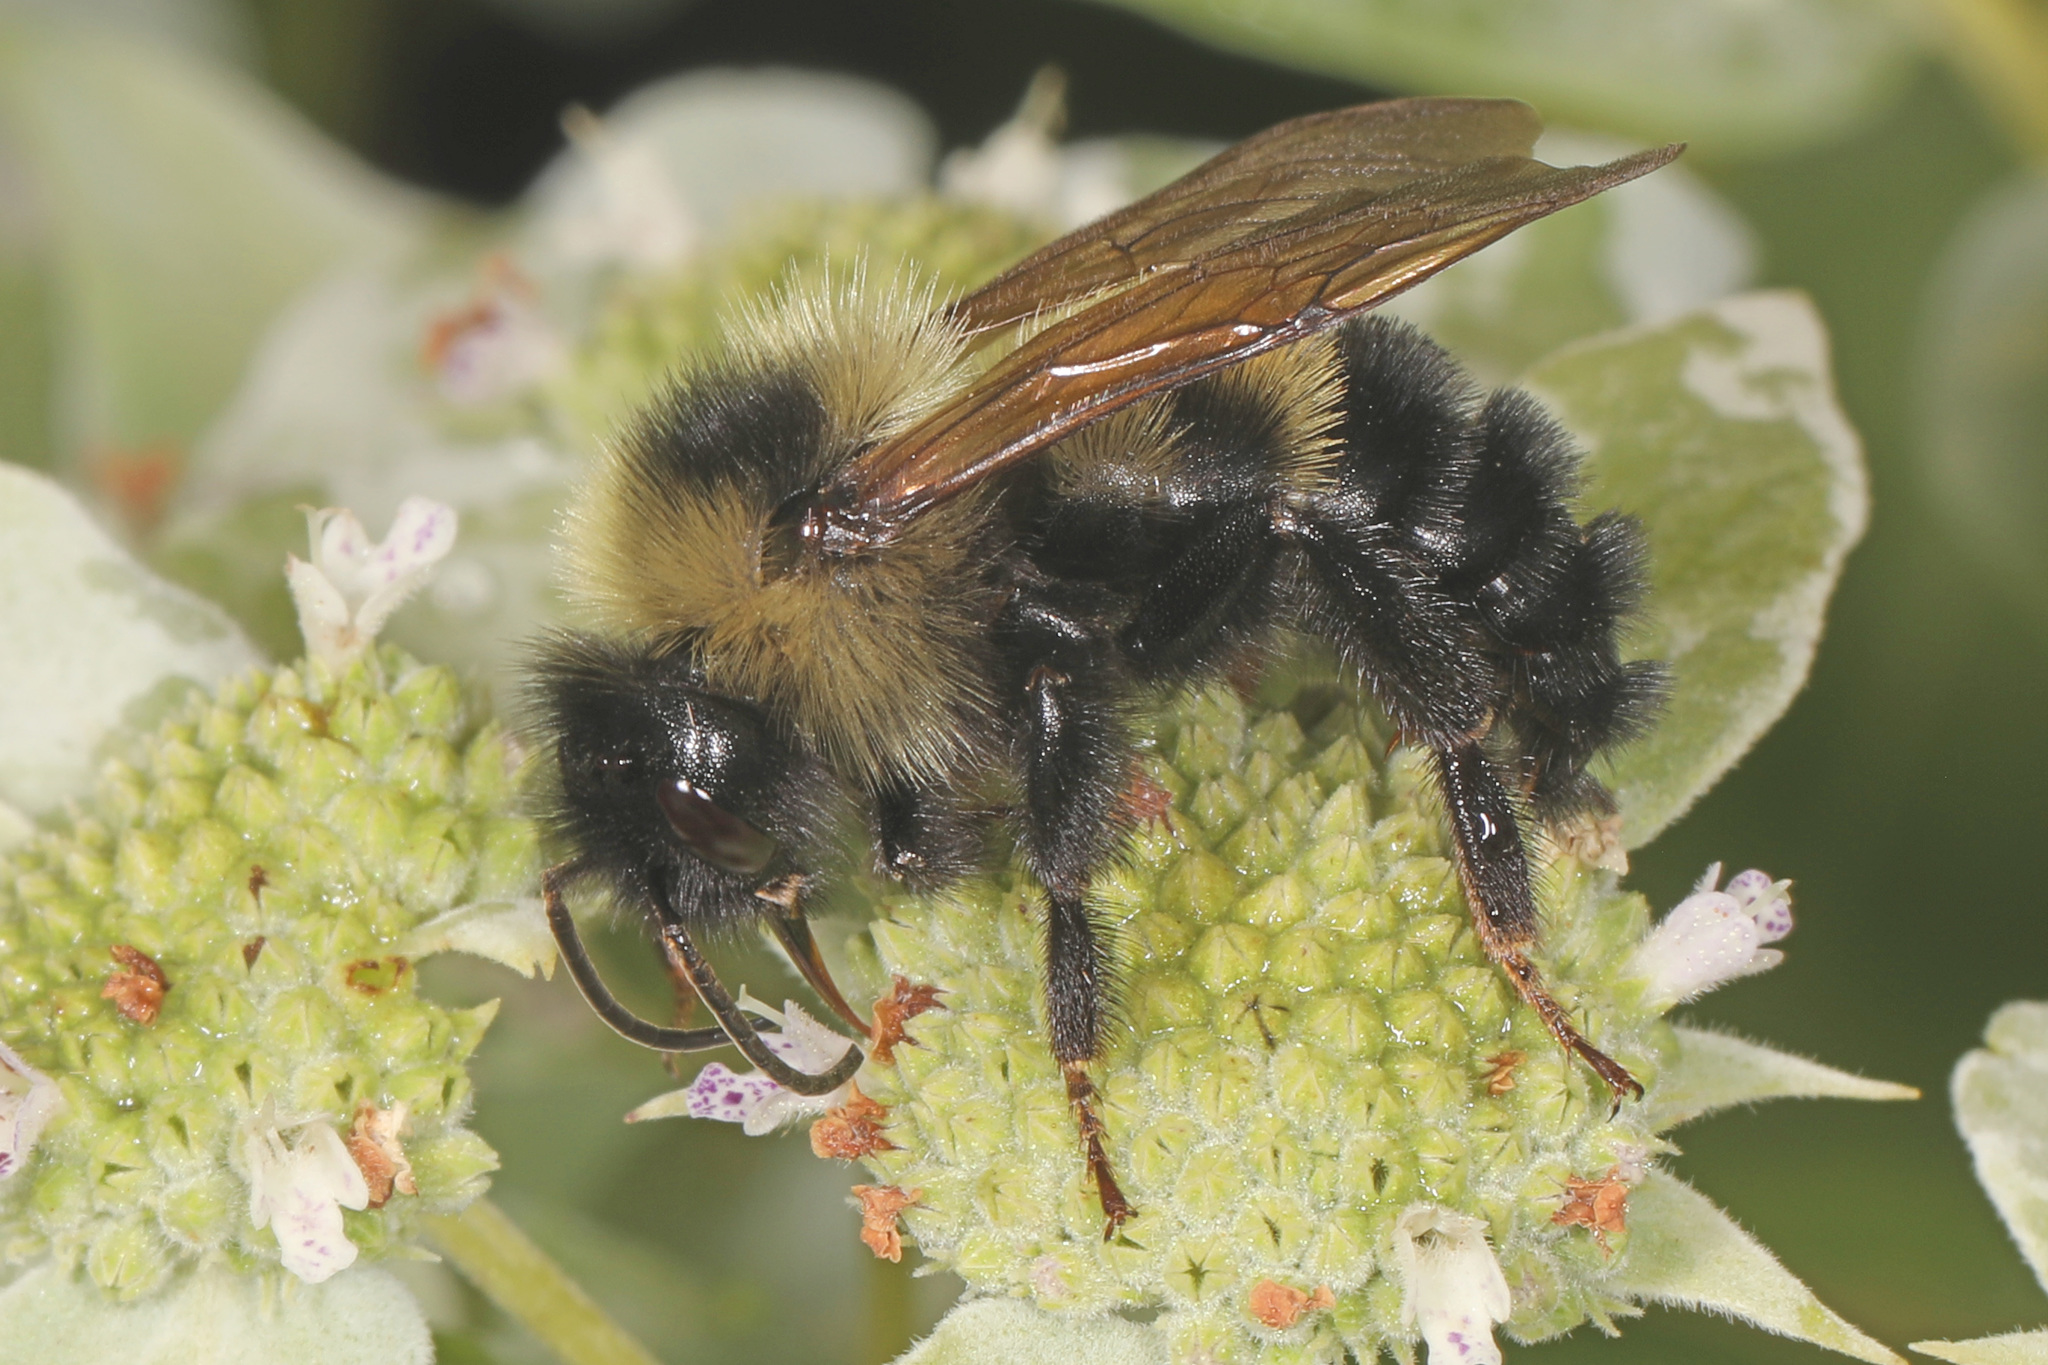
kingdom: Animalia
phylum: Arthropoda
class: Insecta
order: Hymenoptera
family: Apidae
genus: Bombus
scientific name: Bombus citrinus
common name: Lemon cuckoo bumble bee
